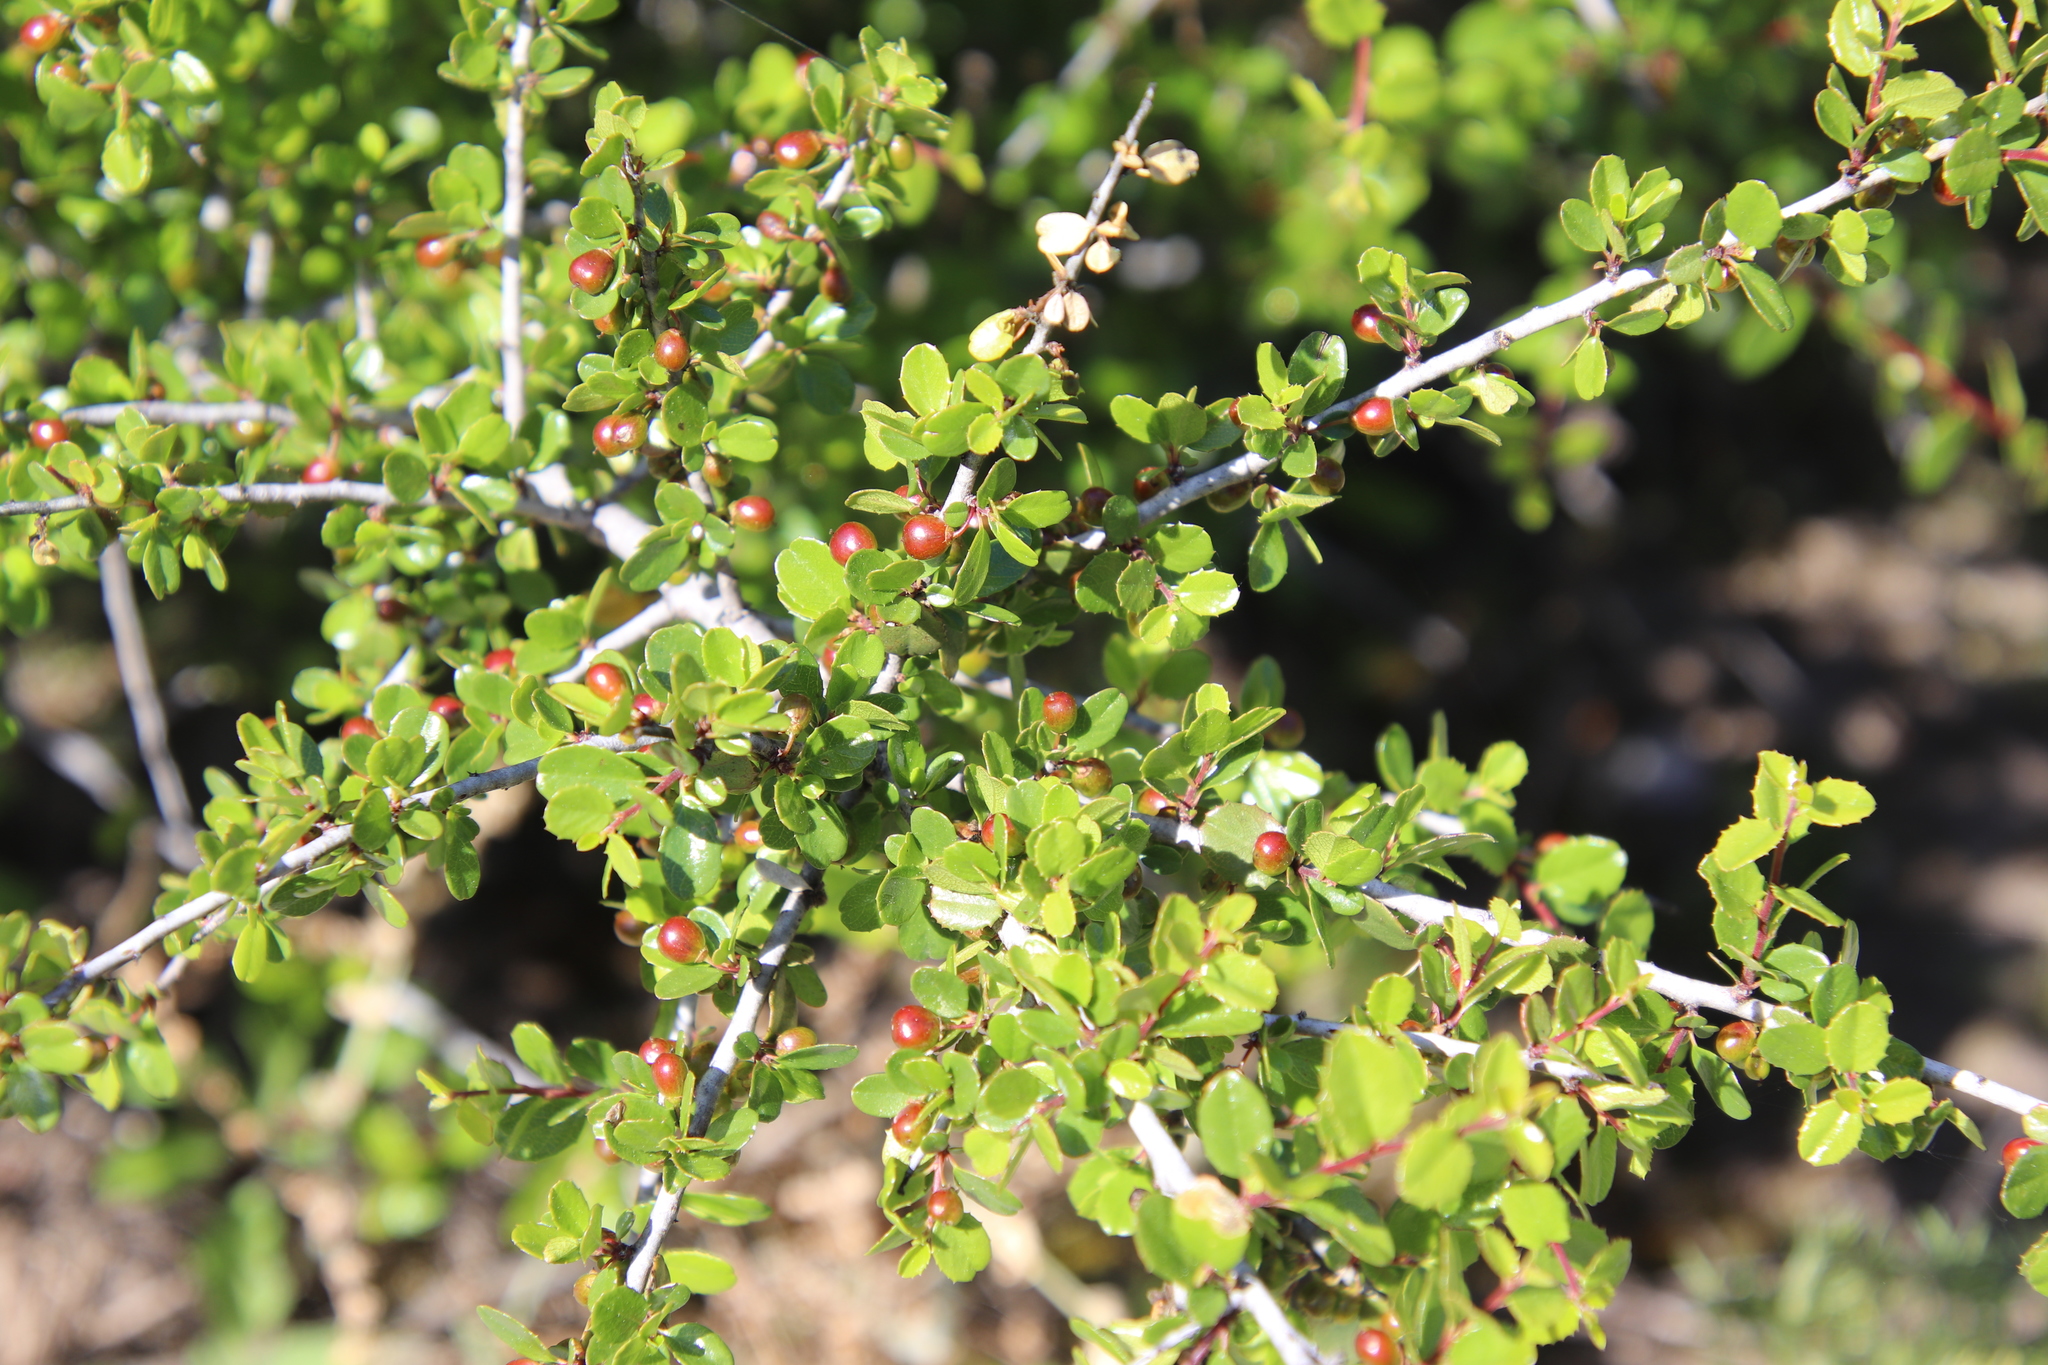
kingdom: Plantae
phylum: Tracheophyta
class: Magnoliopsida
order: Rosales
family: Rhamnaceae
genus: Endotropis
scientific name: Endotropis crocea
